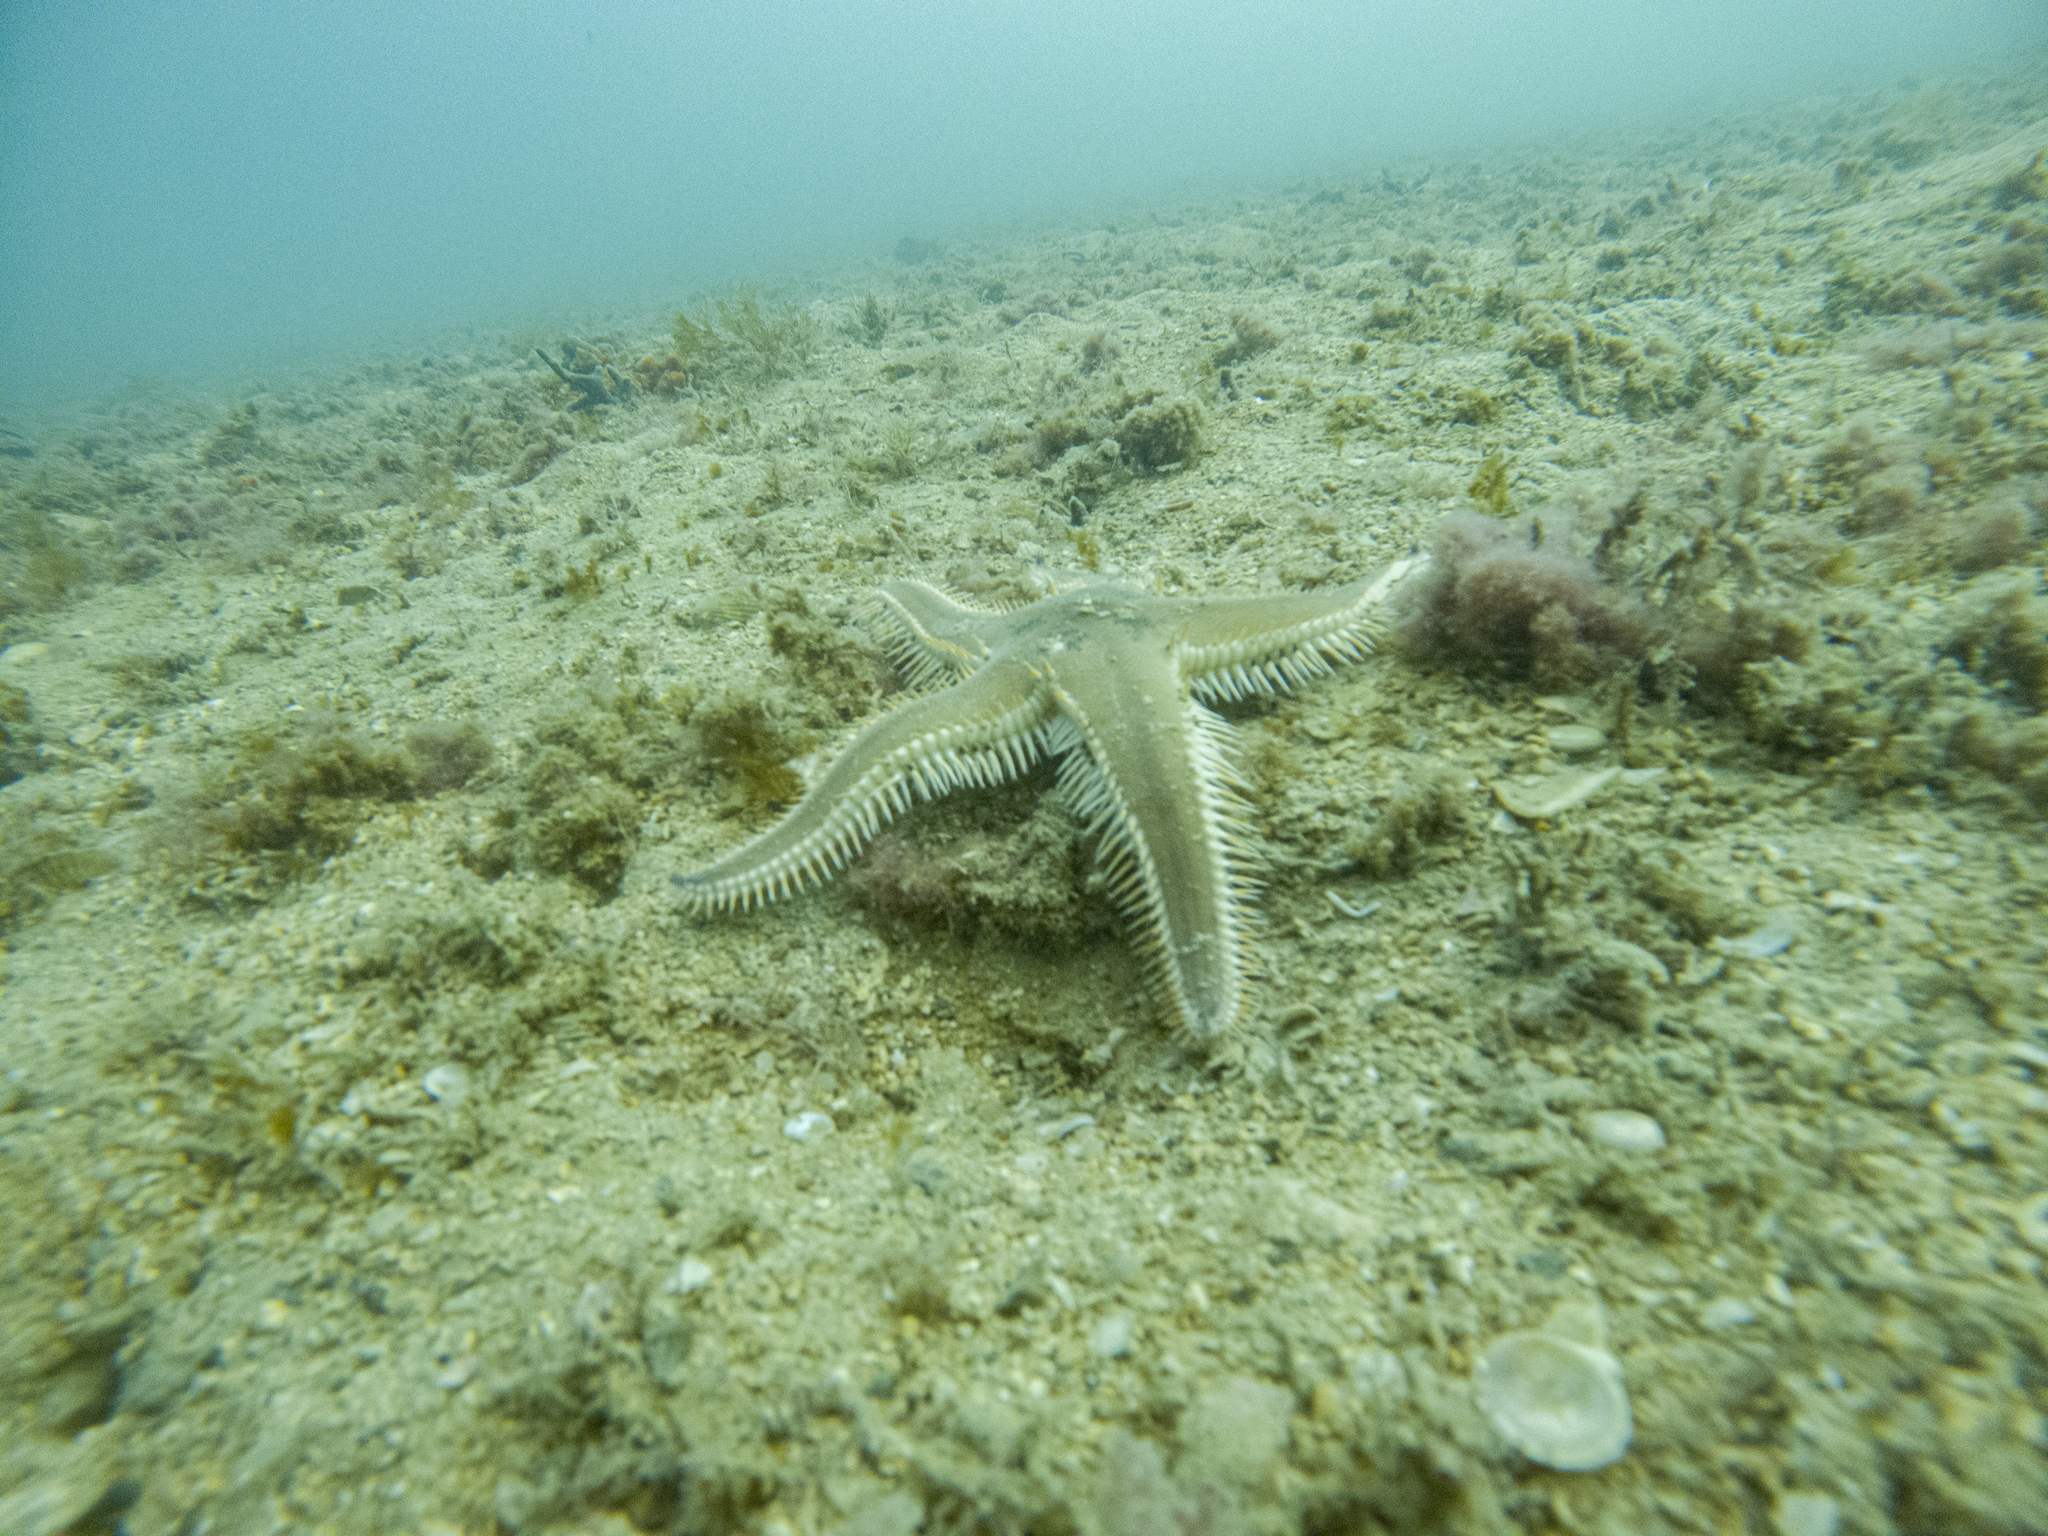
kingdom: Animalia
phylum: Echinodermata
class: Asteroidea
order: Paxillosida
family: Astropectinidae
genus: Astropecten
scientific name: Astropecten polyacanthus
